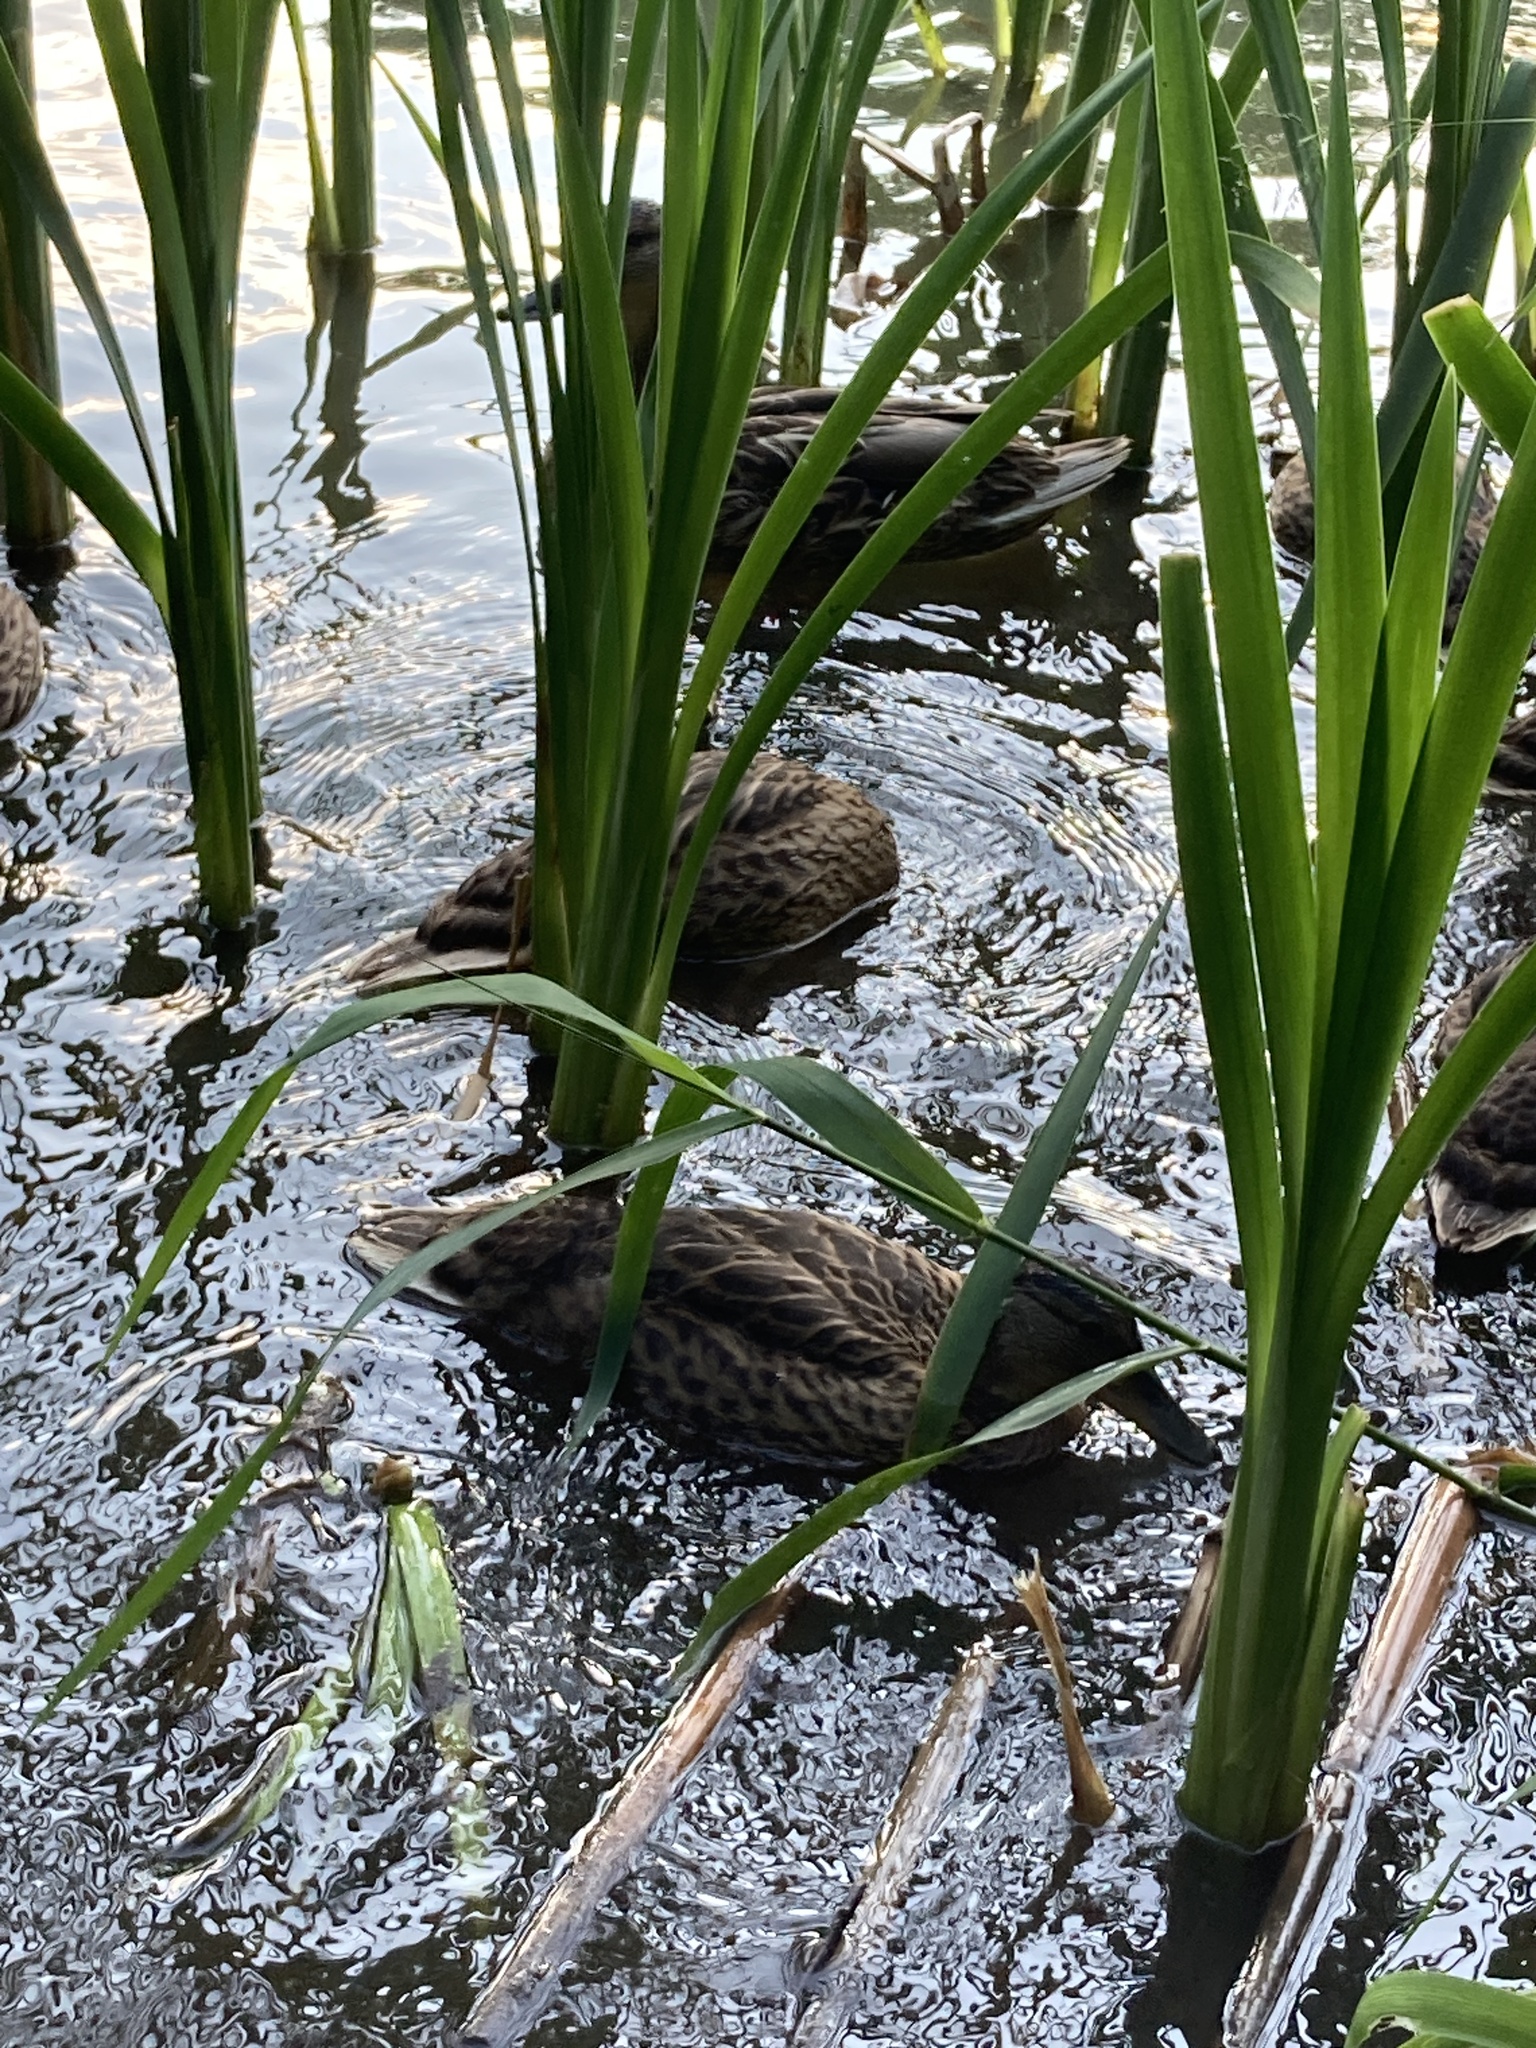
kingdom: Animalia
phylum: Chordata
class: Aves
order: Anseriformes
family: Anatidae
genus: Anas
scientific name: Anas platyrhynchos
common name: Mallard
